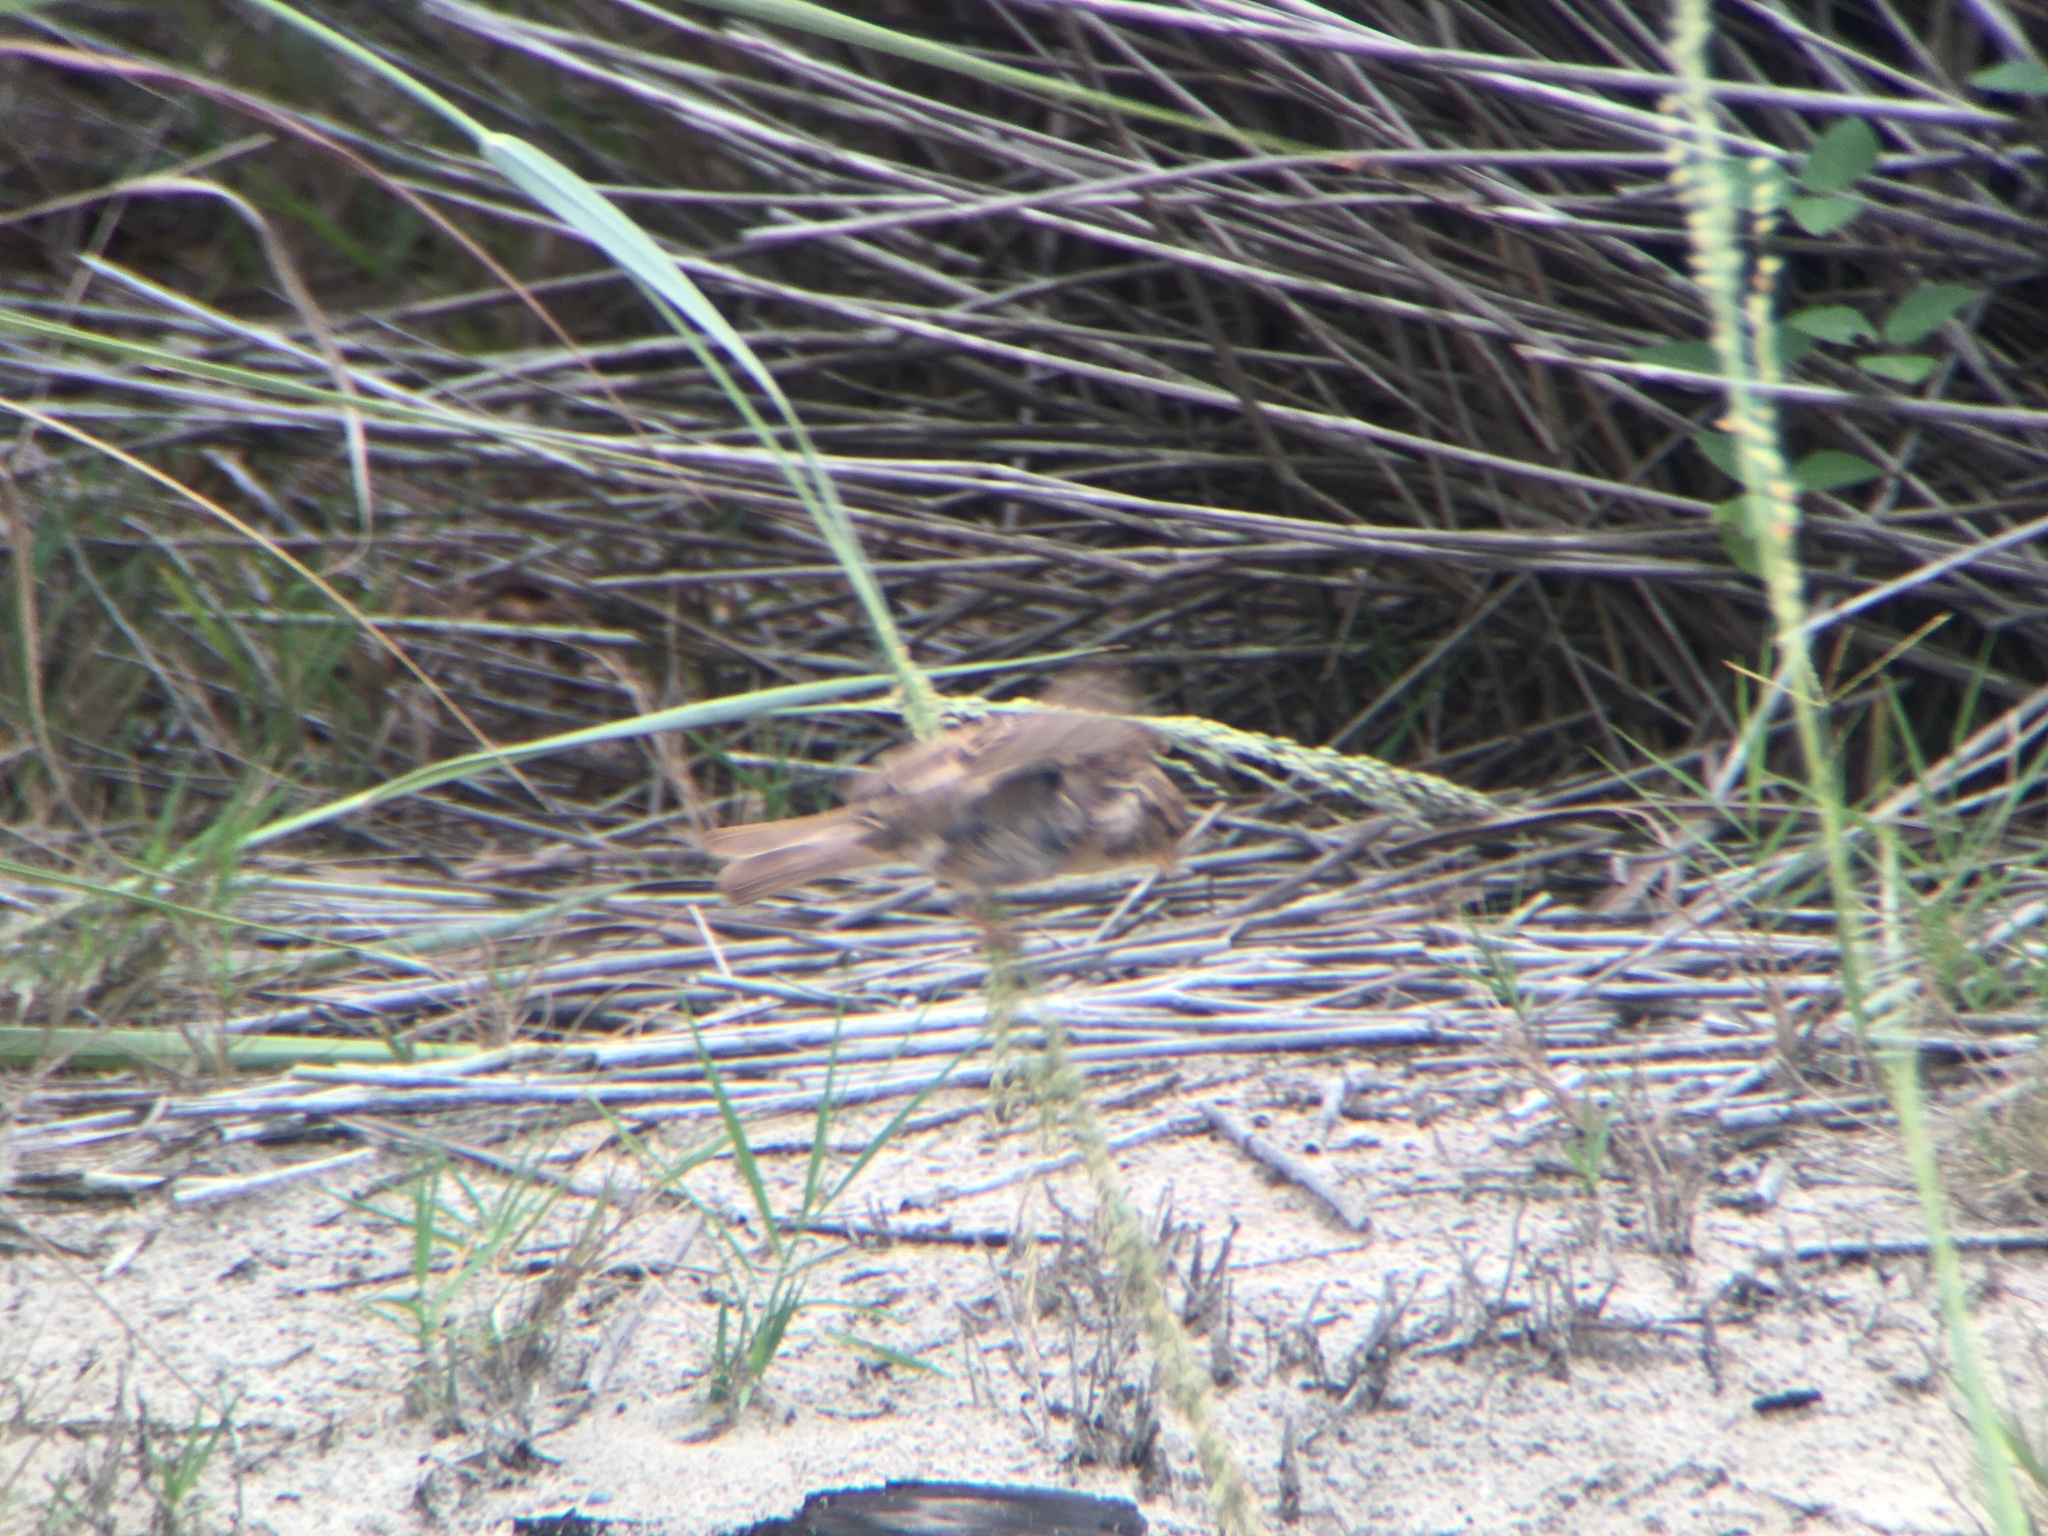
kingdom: Animalia
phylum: Chordata
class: Aves
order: Passeriformes
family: Passeridae
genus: Passer
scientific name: Passer domesticus
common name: House sparrow
